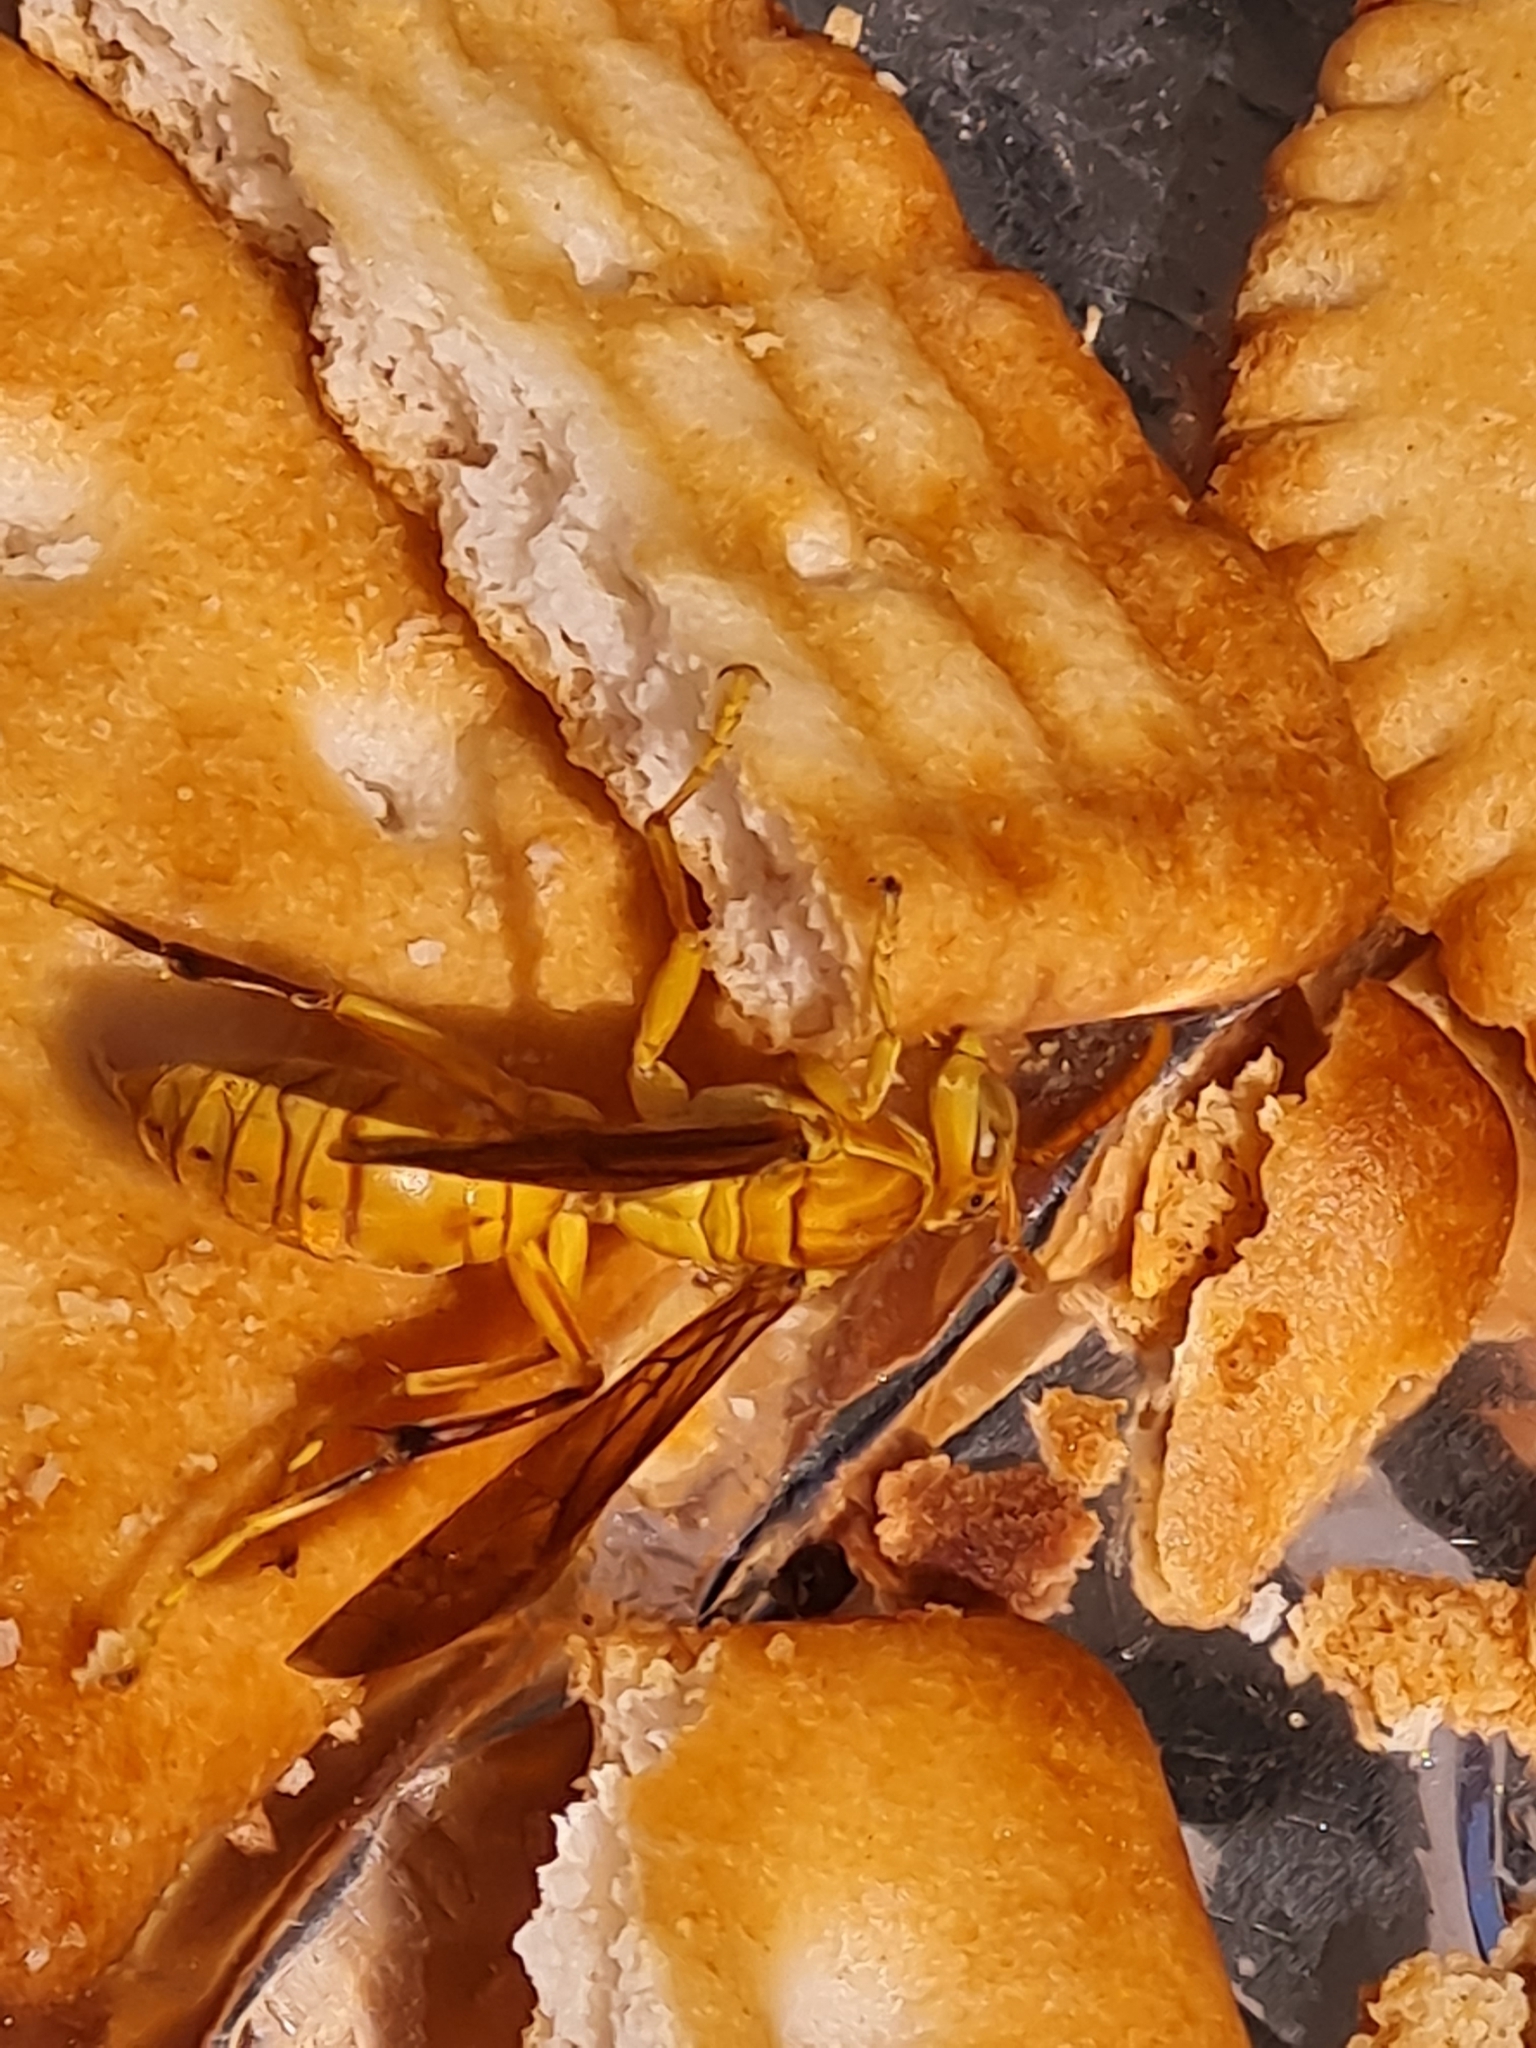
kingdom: Animalia
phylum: Arthropoda
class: Insecta
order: Hymenoptera
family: Eumenidae
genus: Polistes
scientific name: Polistes wattii
